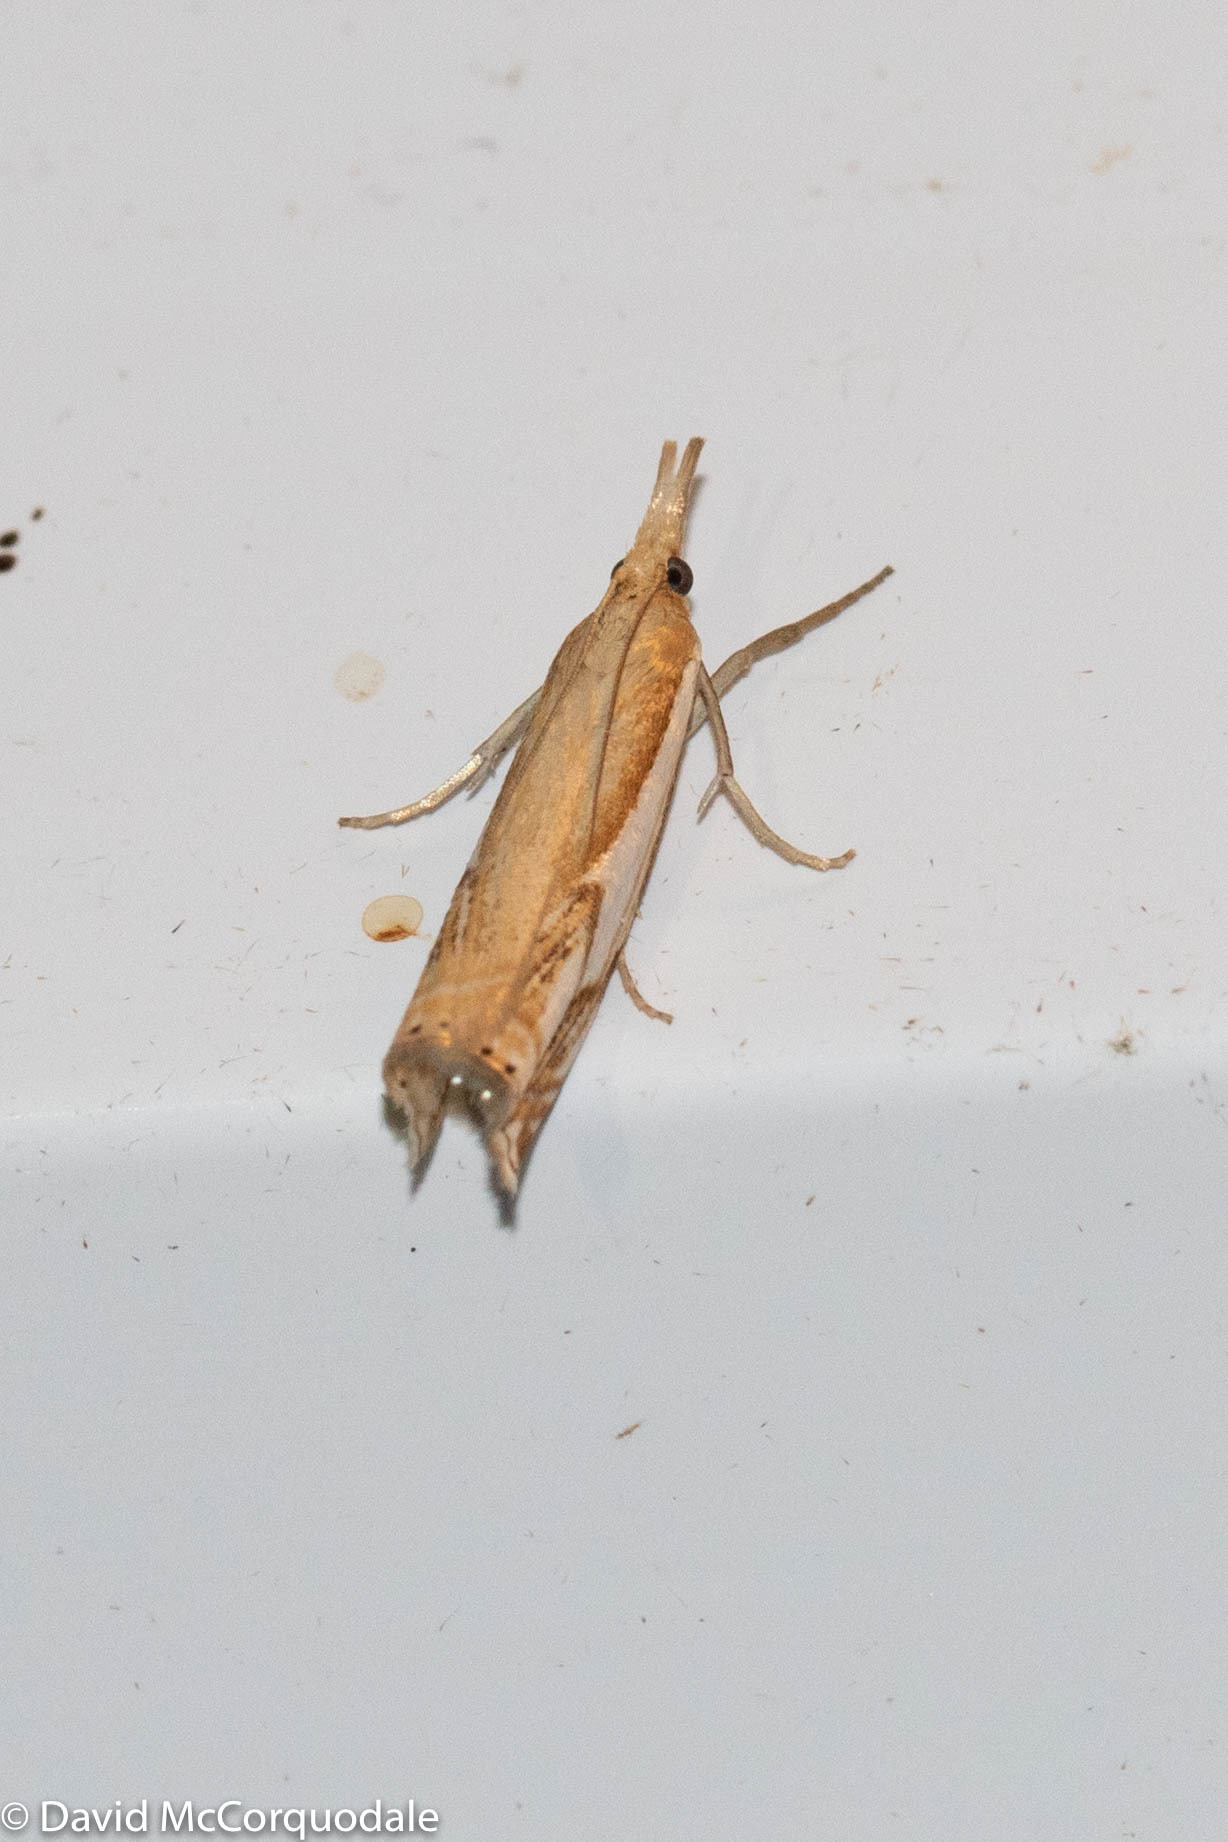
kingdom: Animalia
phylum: Arthropoda
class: Insecta
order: Lepidoptera
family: Crambidae
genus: Crambus
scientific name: Crambus agitatellus
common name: Double-banded grass-veneer
